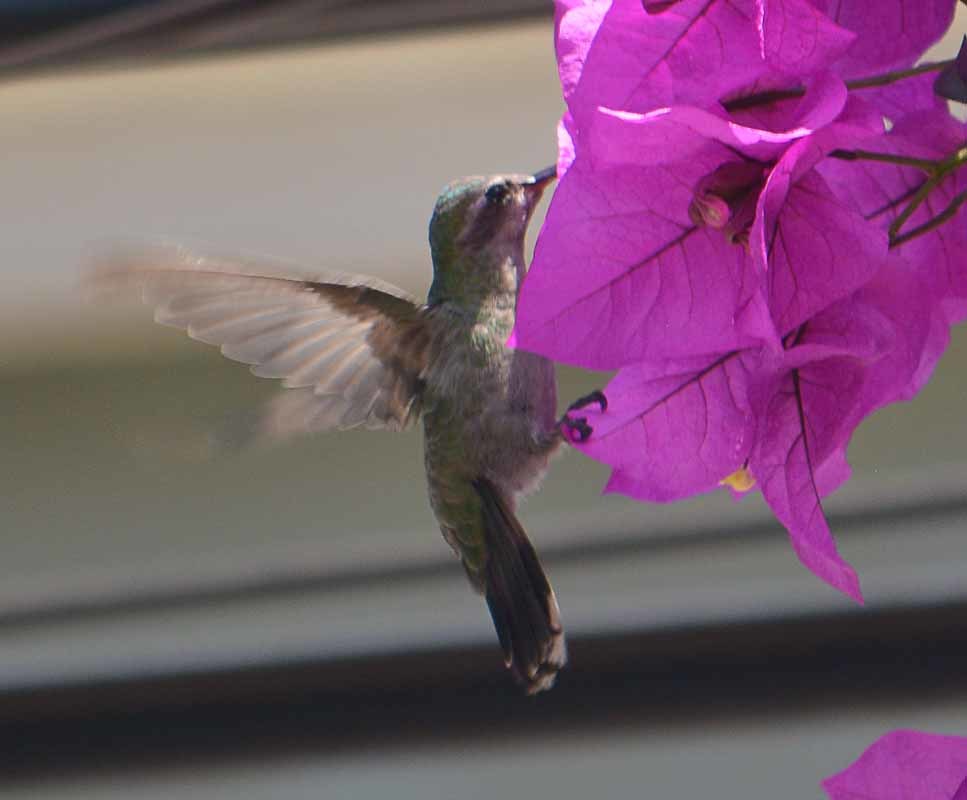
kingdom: Animalia
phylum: Chordata
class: Aves
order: Apodiformes
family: Trochilidae
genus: Cynanthus
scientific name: Cynanthus latirostris
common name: Broad-billed hummingbird
